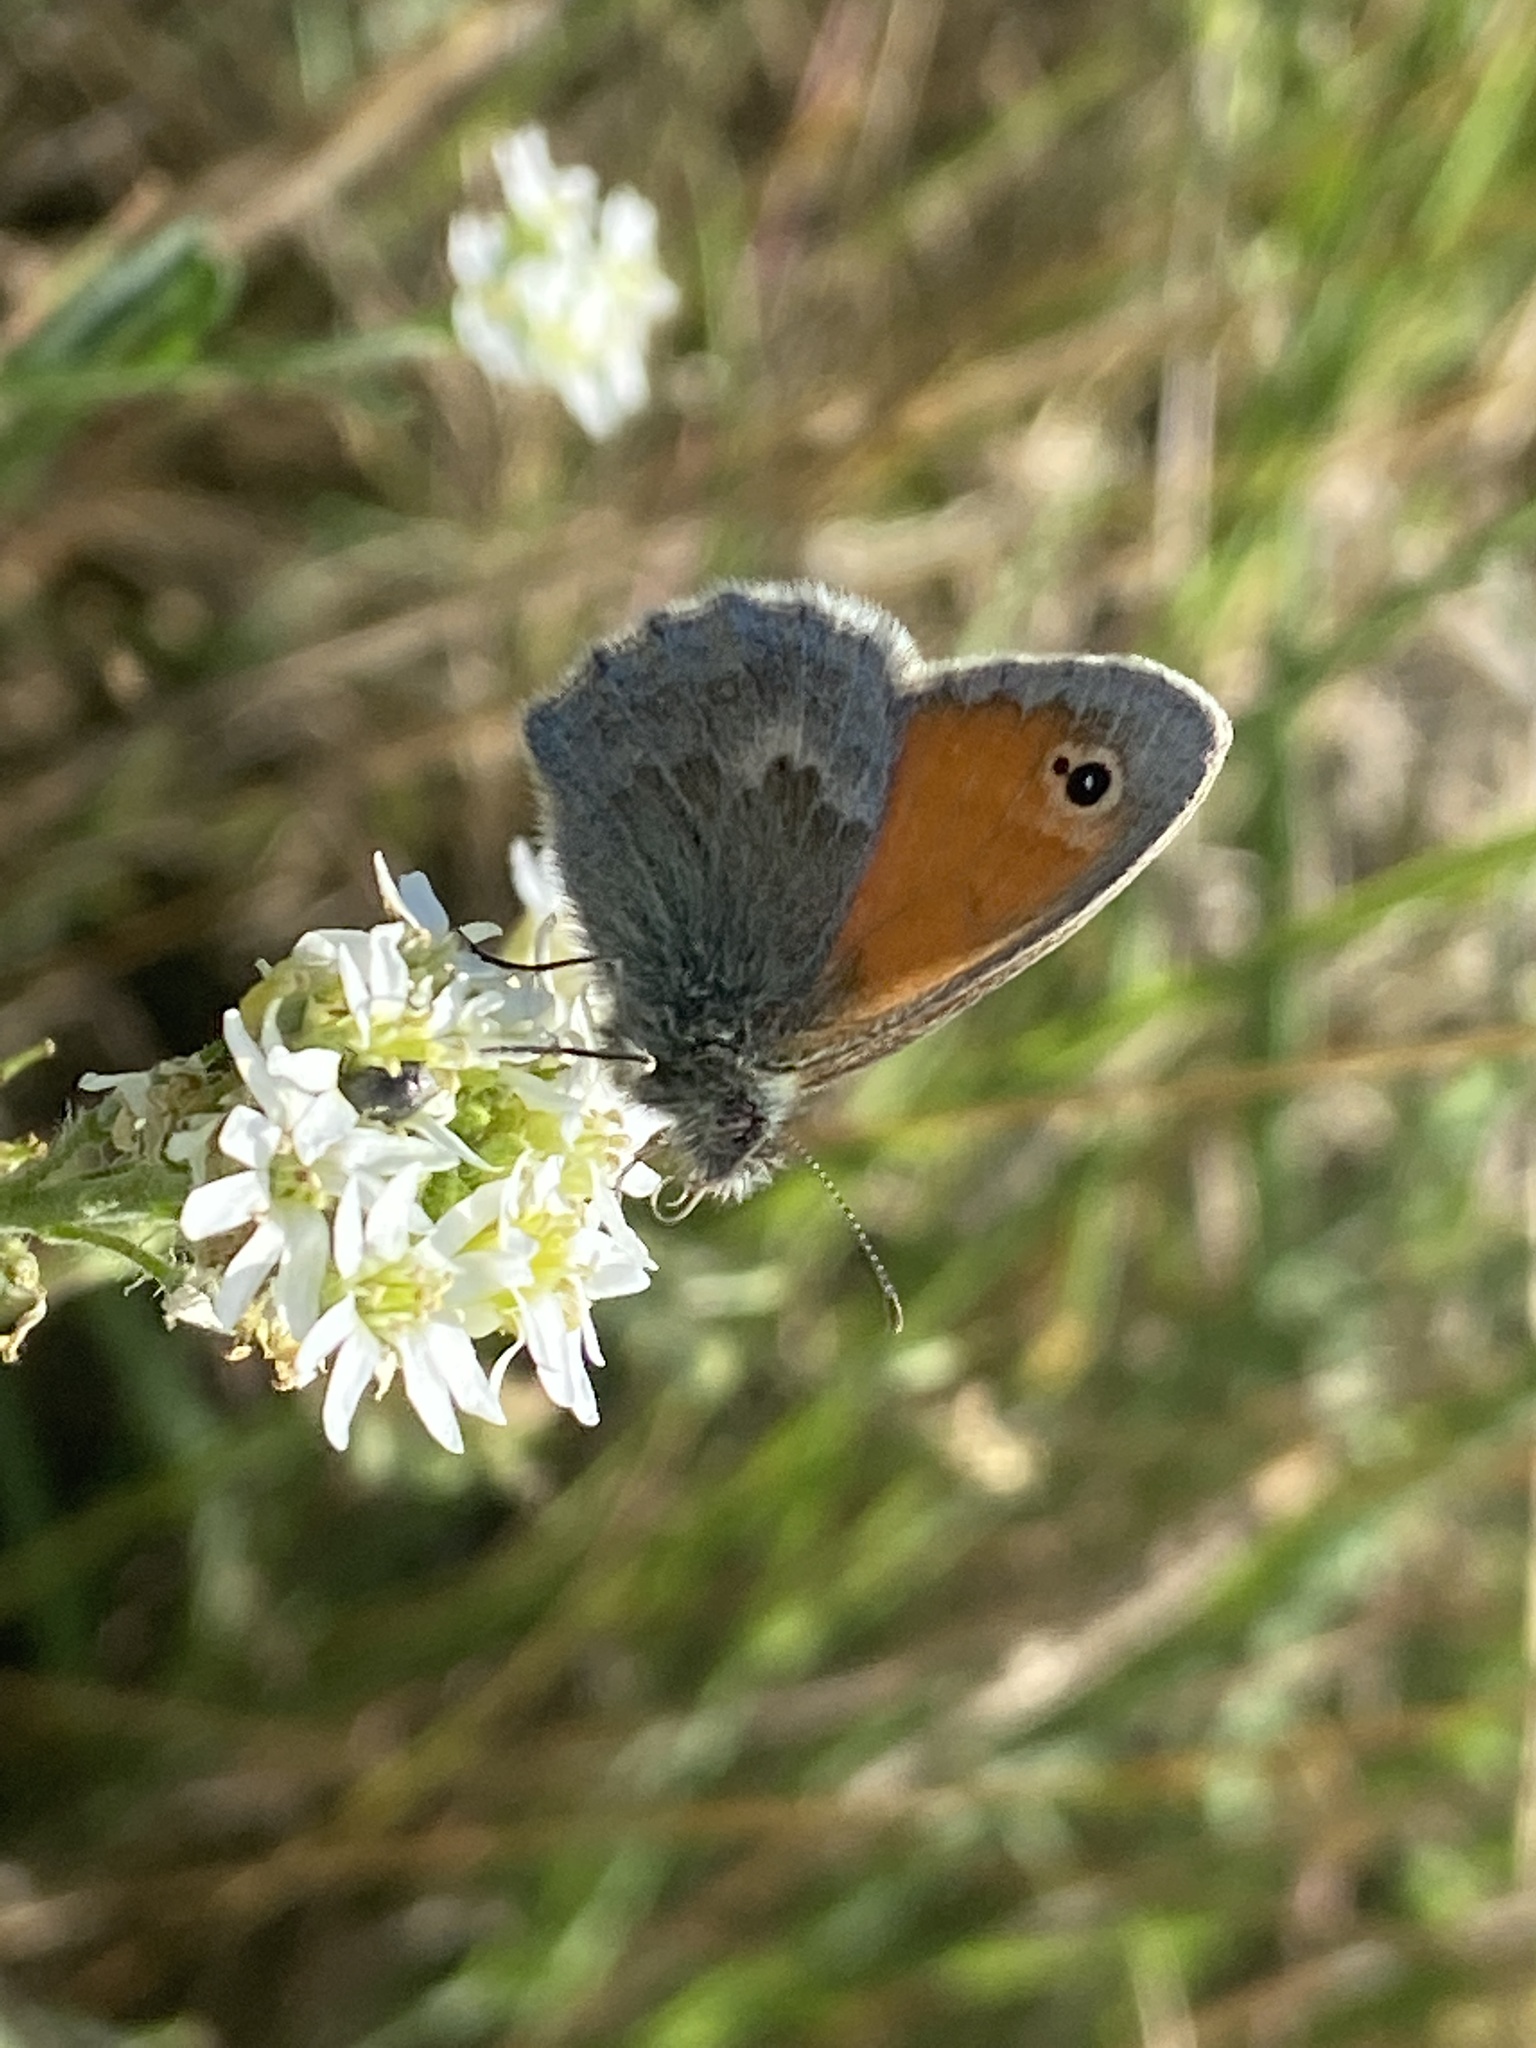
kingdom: Animalia
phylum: Arthropoda
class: Insecta
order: Lepidoptera
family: Nymphalidae
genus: Coenonympha
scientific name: Coenonympha pamphilus
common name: Small heath
